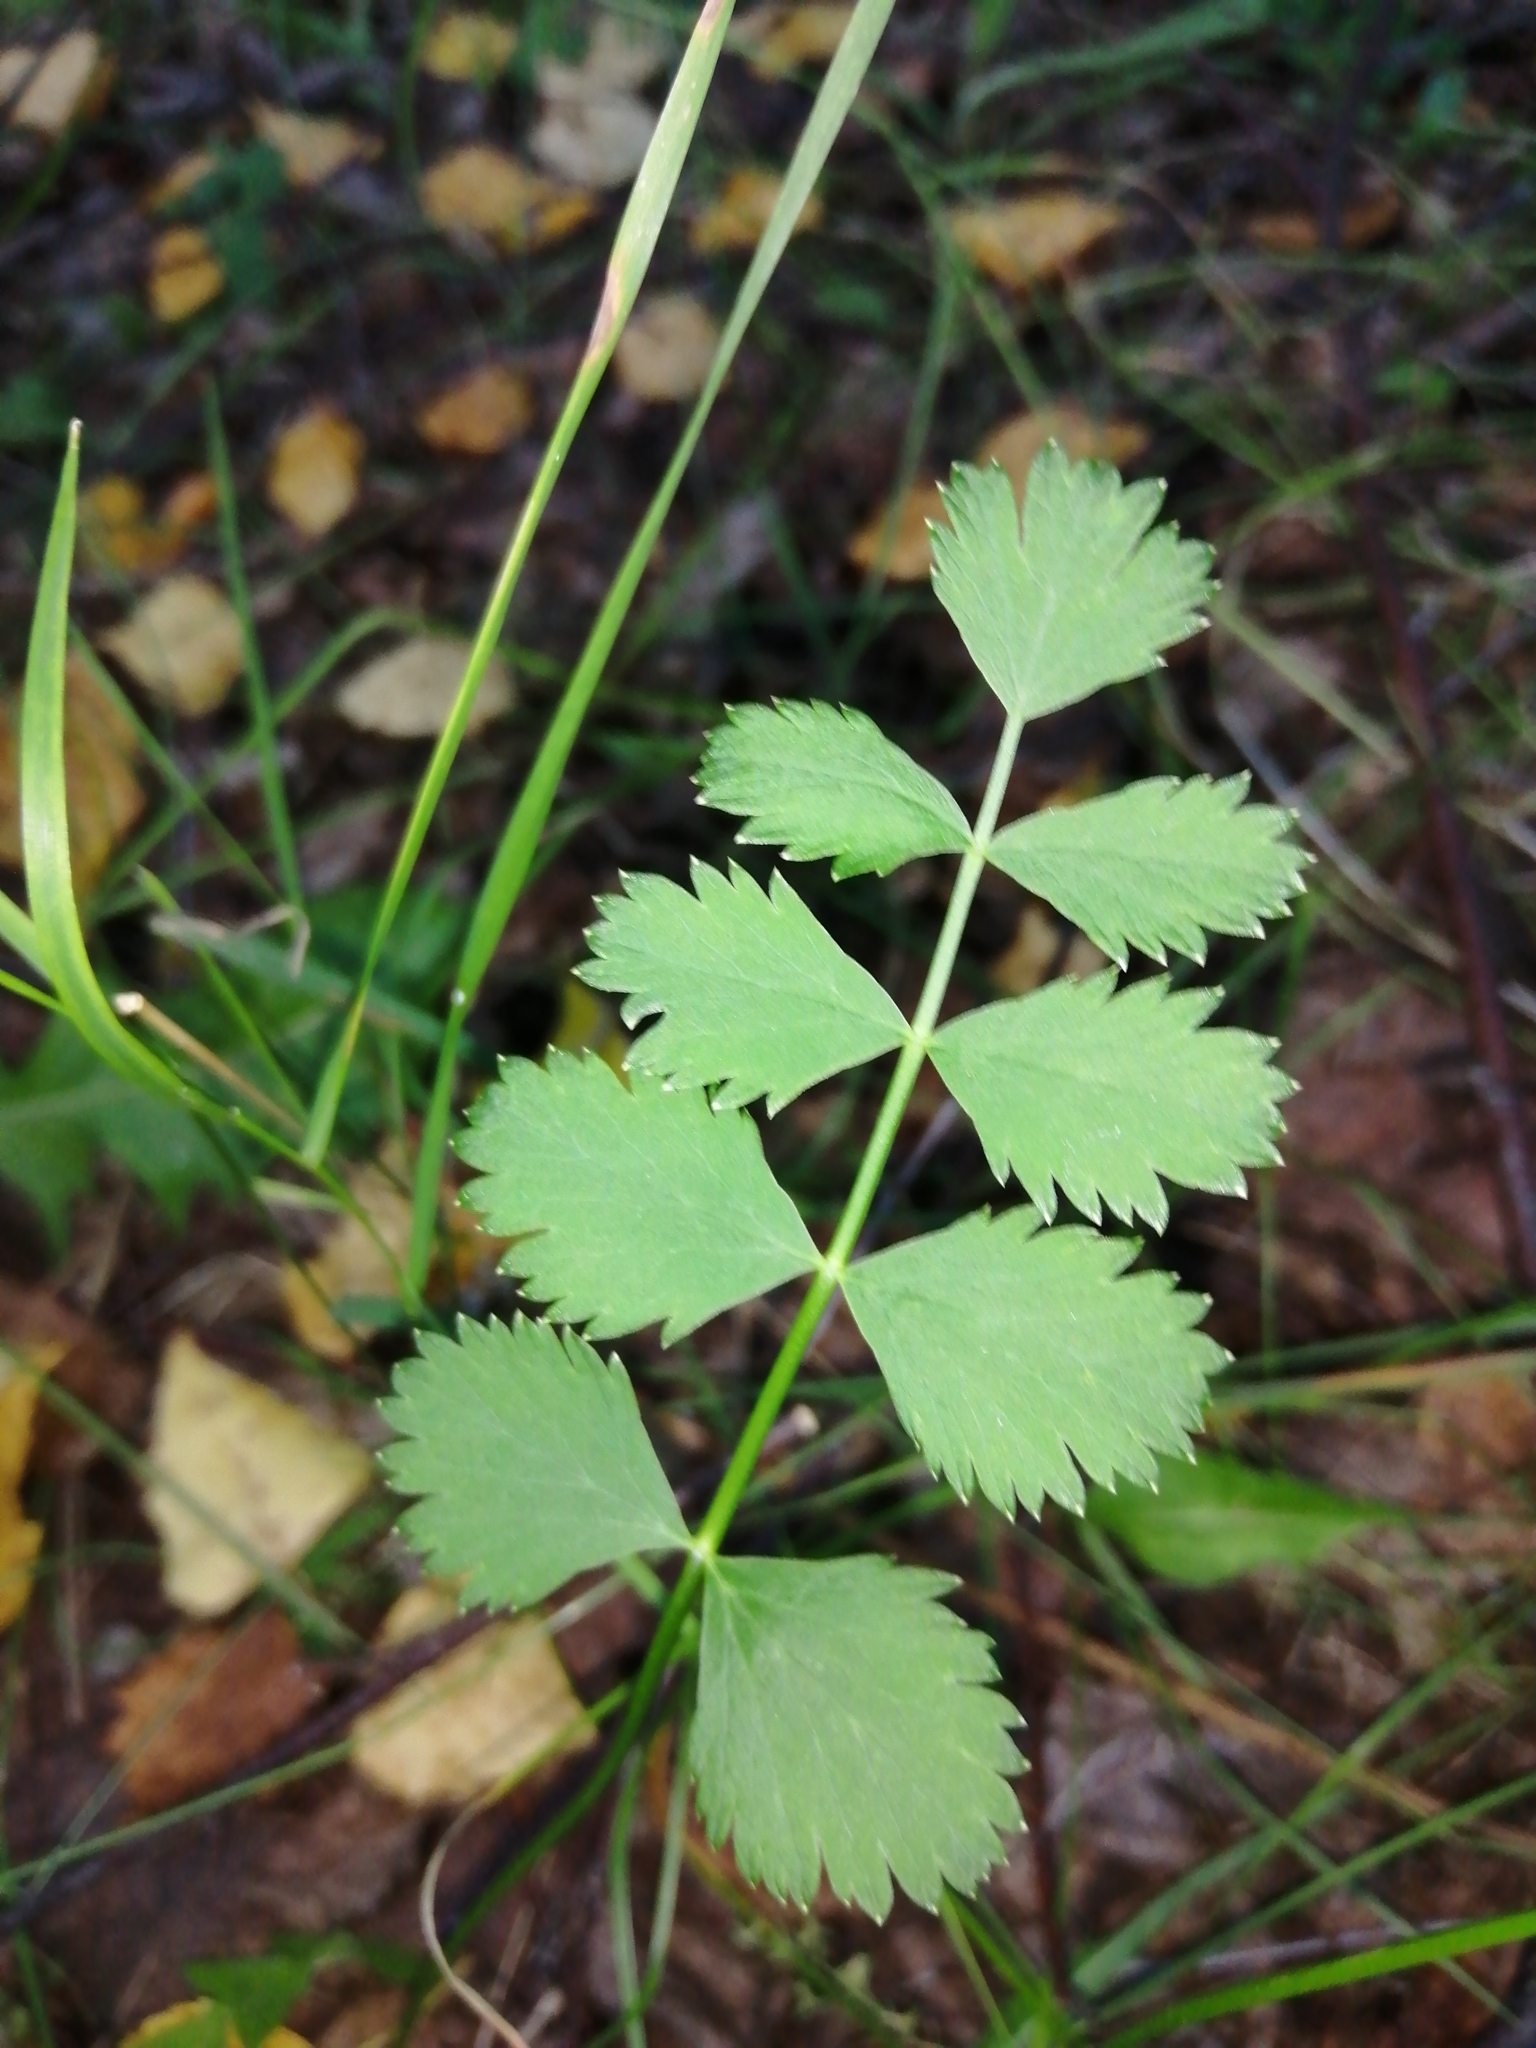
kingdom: Plantae
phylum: Tracheophyta
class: Magnoliopsida
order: Apiales
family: Apiaceae
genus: Pimpinella
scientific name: Pimpinella saxifraga
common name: Burnet-saxifrage
